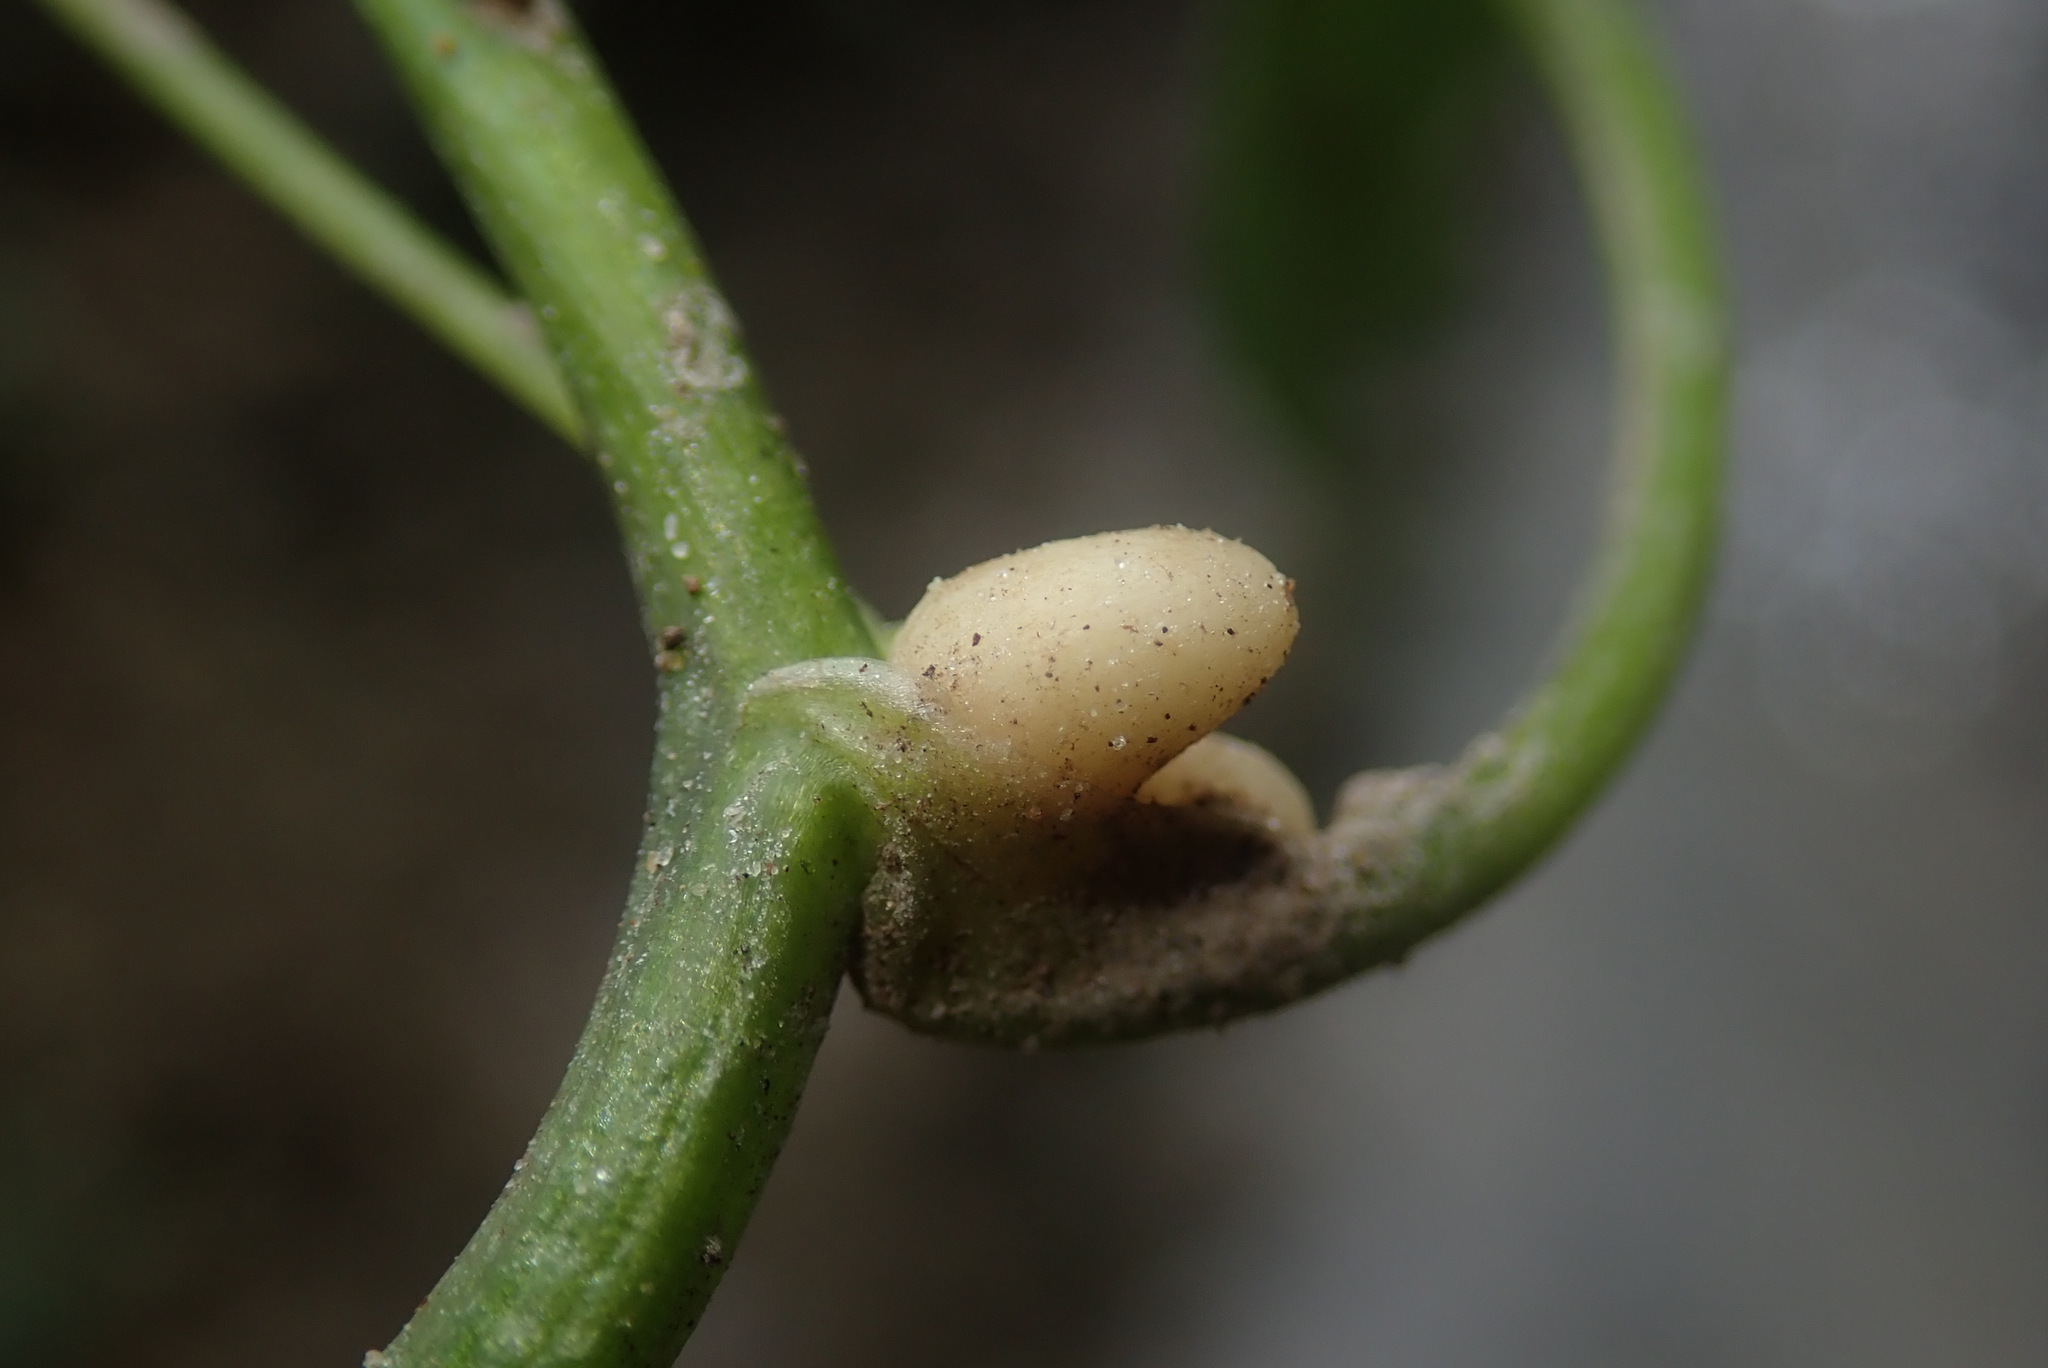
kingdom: Plantae
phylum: Tracheophyta
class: Magnoliopsida
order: Ranunculales
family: Ranunculaceae
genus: Ficaria
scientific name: Ficaria verna
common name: Lesser celandine
